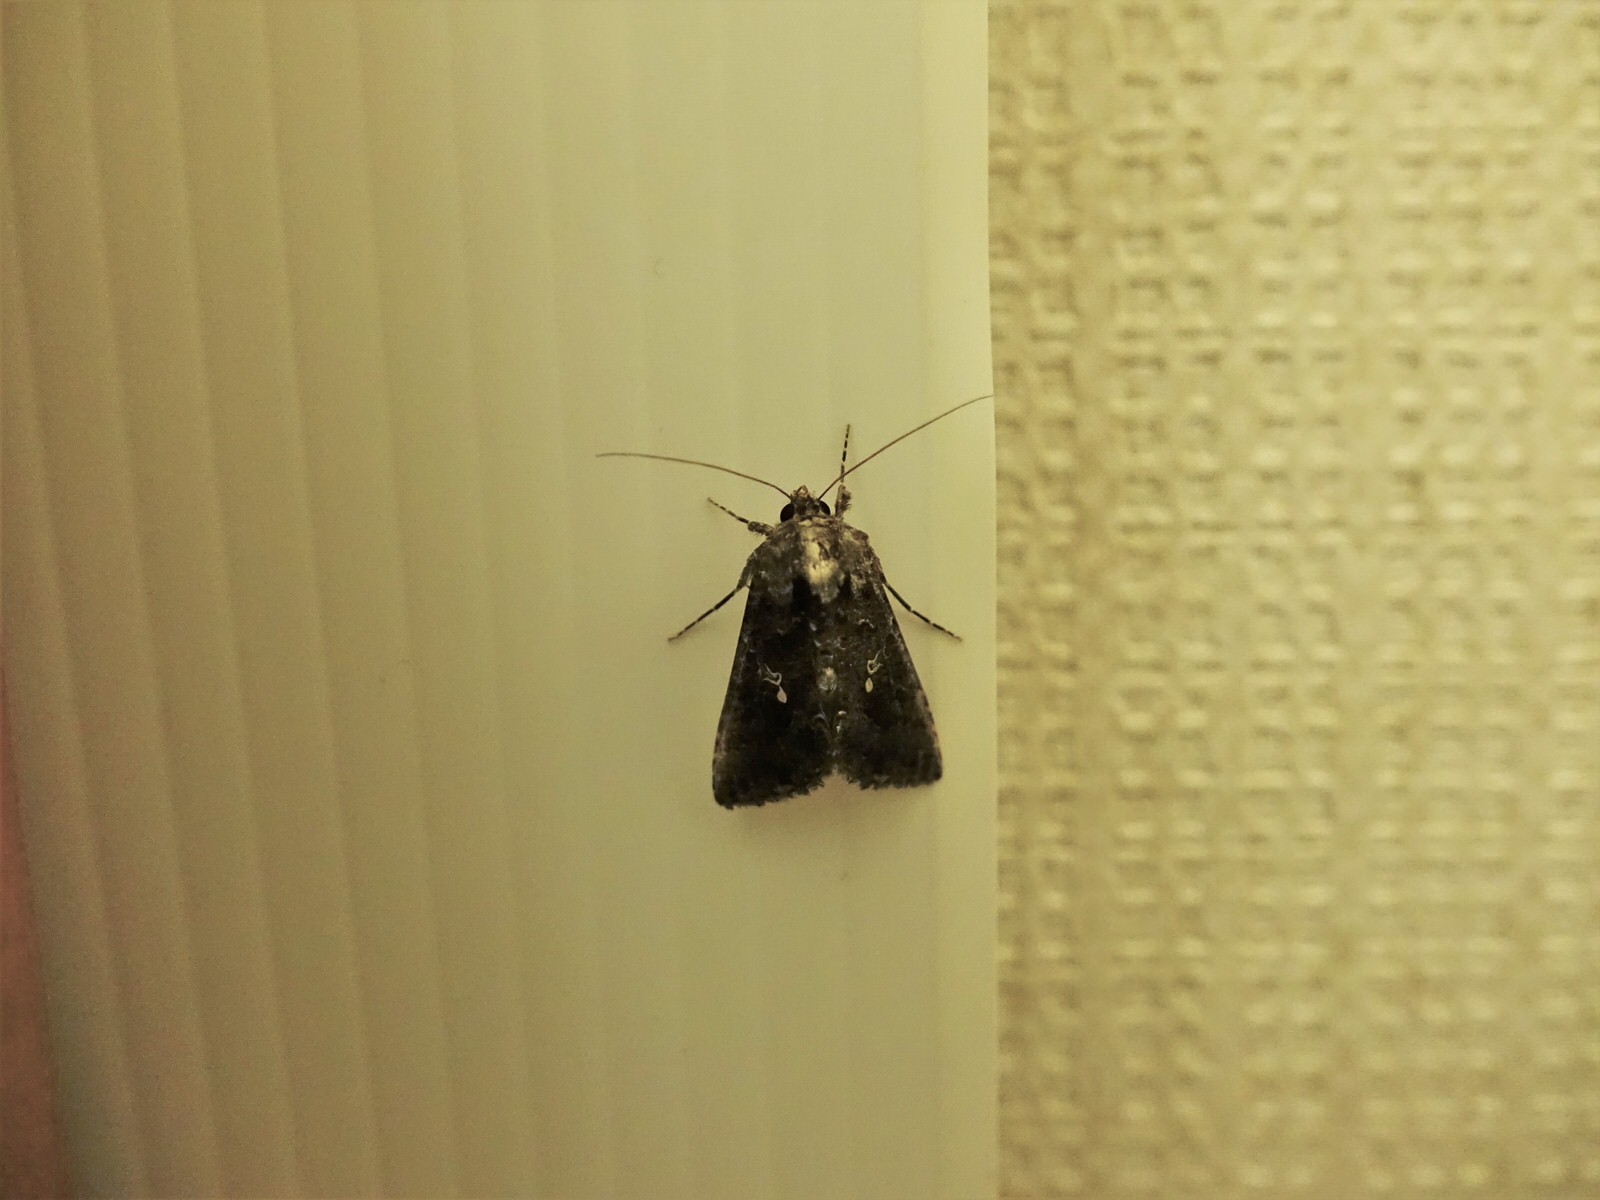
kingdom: Animalia
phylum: Arthropoda
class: Insecta
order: Lepidoptera
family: Noctuidae
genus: Ctenoplusia
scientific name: Ctenoplusia limbirena
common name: Scar bank gem
